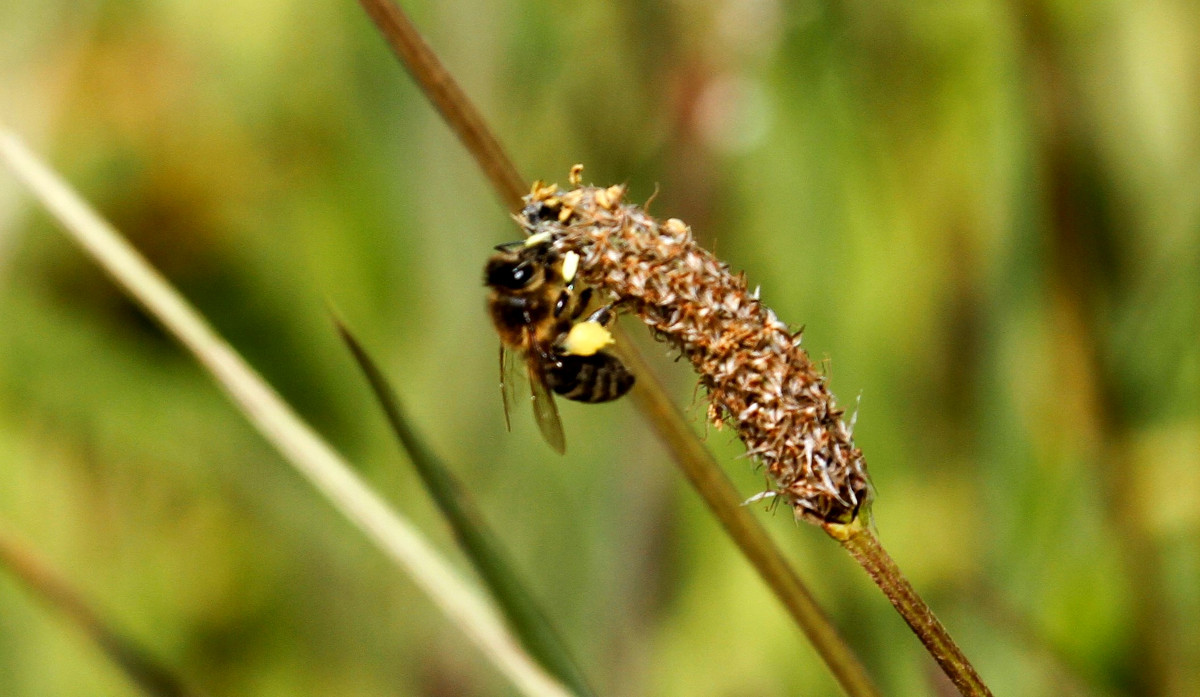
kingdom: Animalia
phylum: Arthropoda
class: Insecta
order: Hymenoptera
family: Apidae
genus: Apis
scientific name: Apis mellifera
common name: Honey bee
